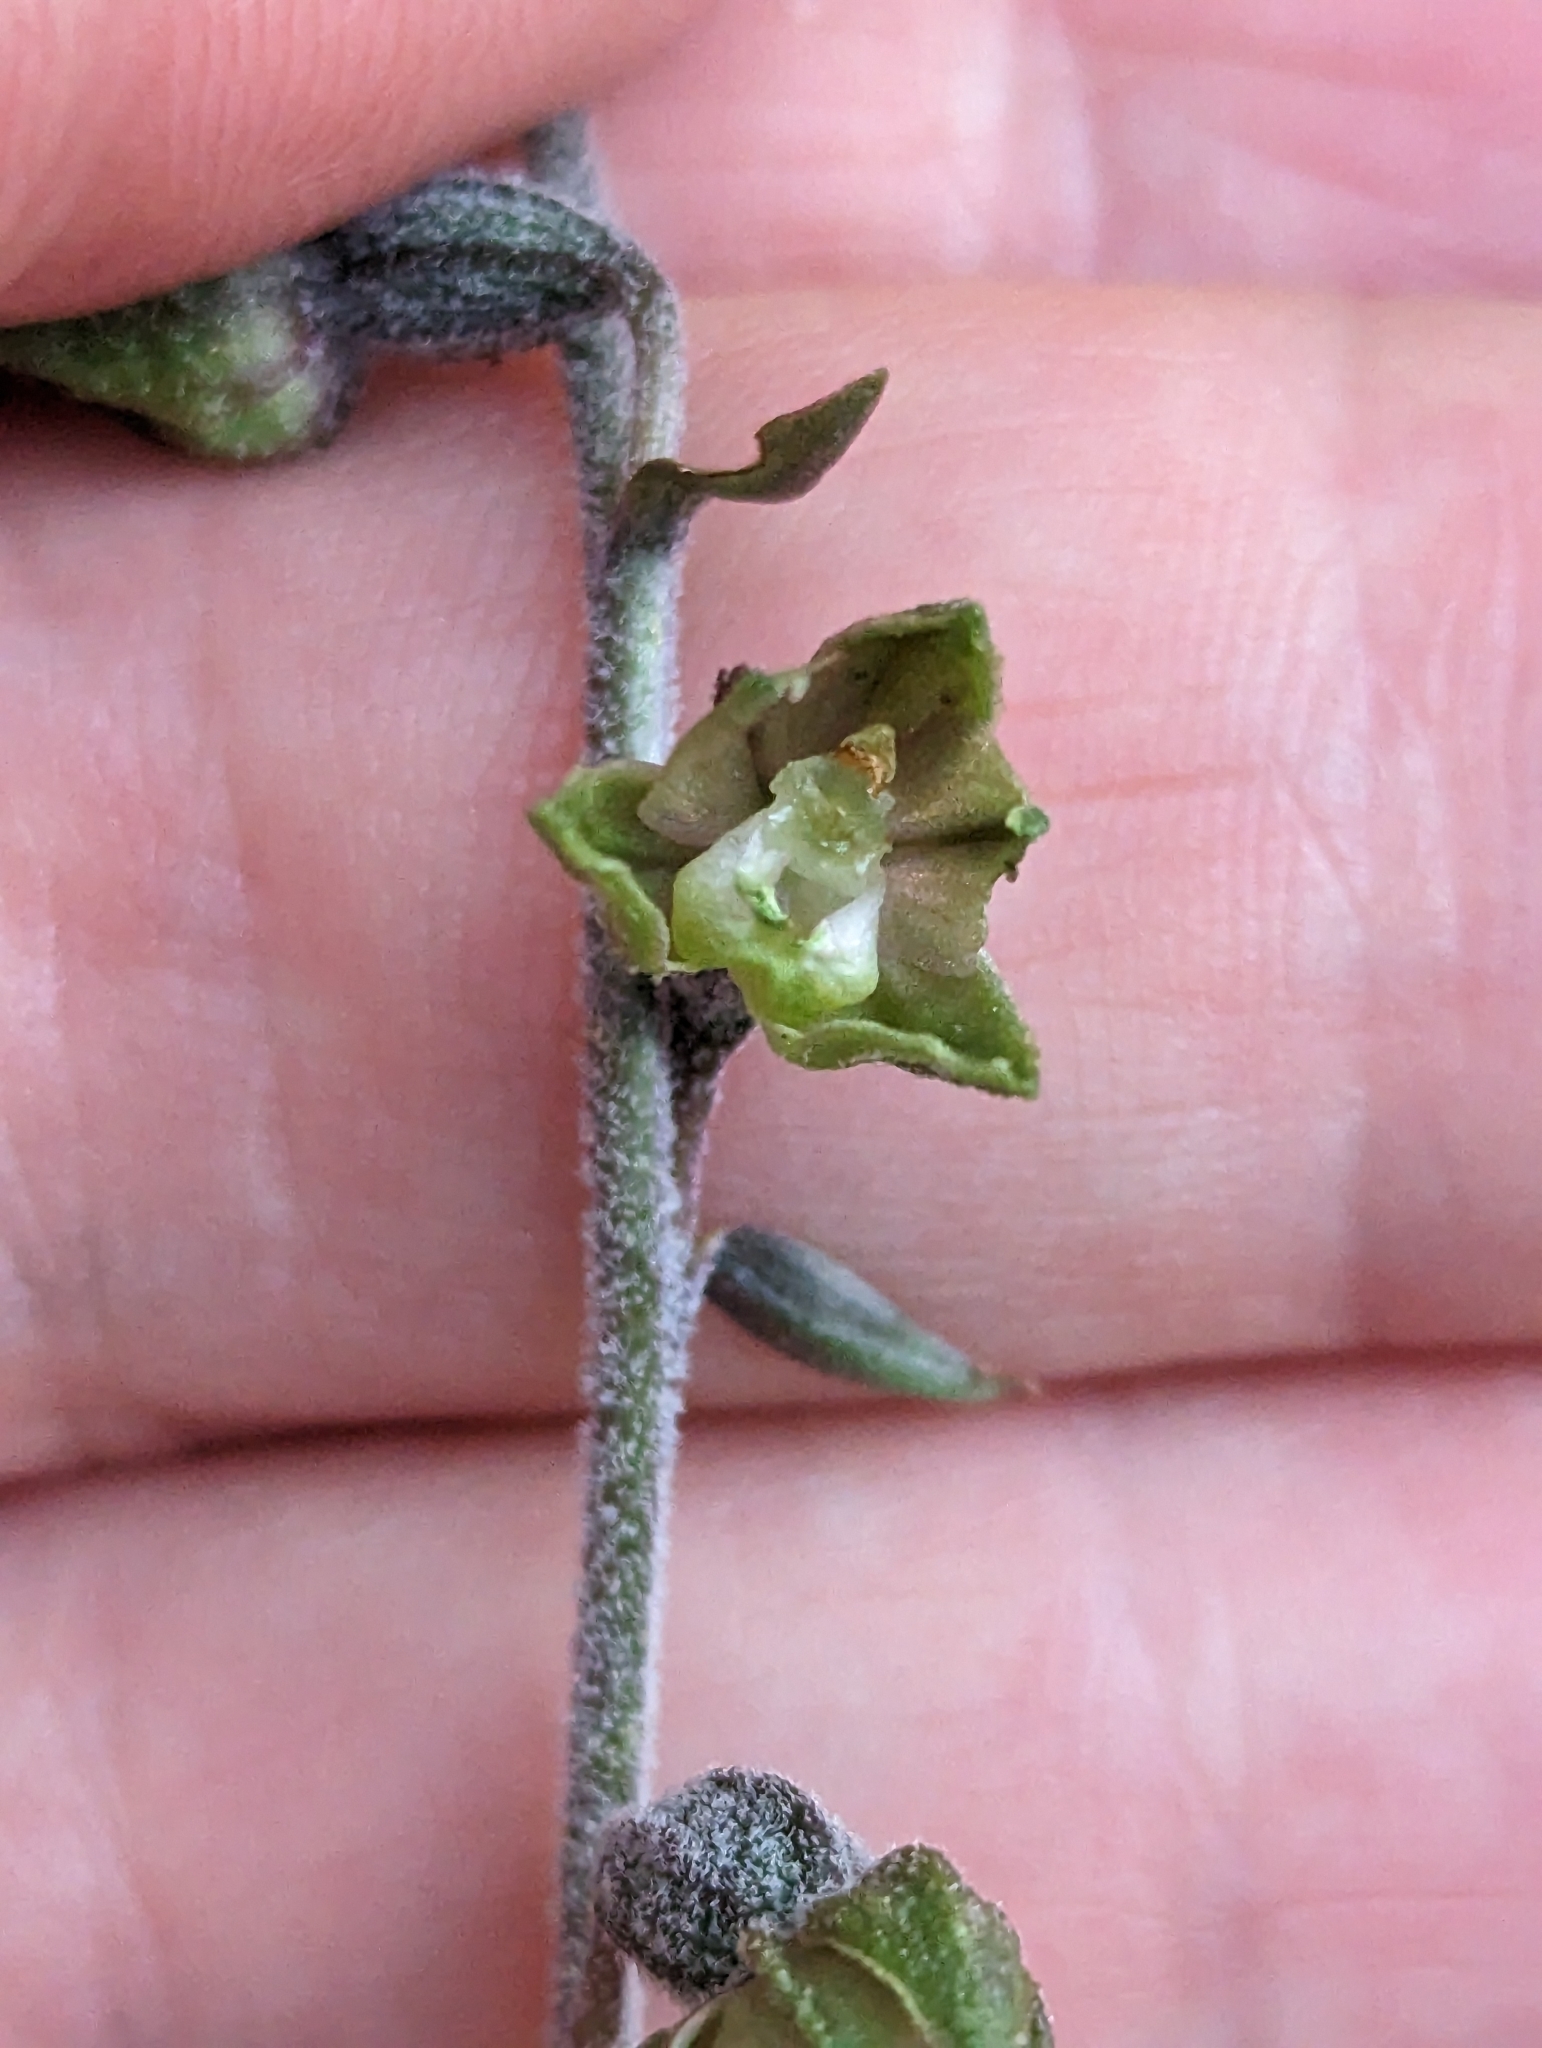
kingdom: Plantae
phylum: Tracheophyta
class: Liliopsida
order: Asparagales
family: Orchidaceae
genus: Epipactis
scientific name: Epipactis microphylla
